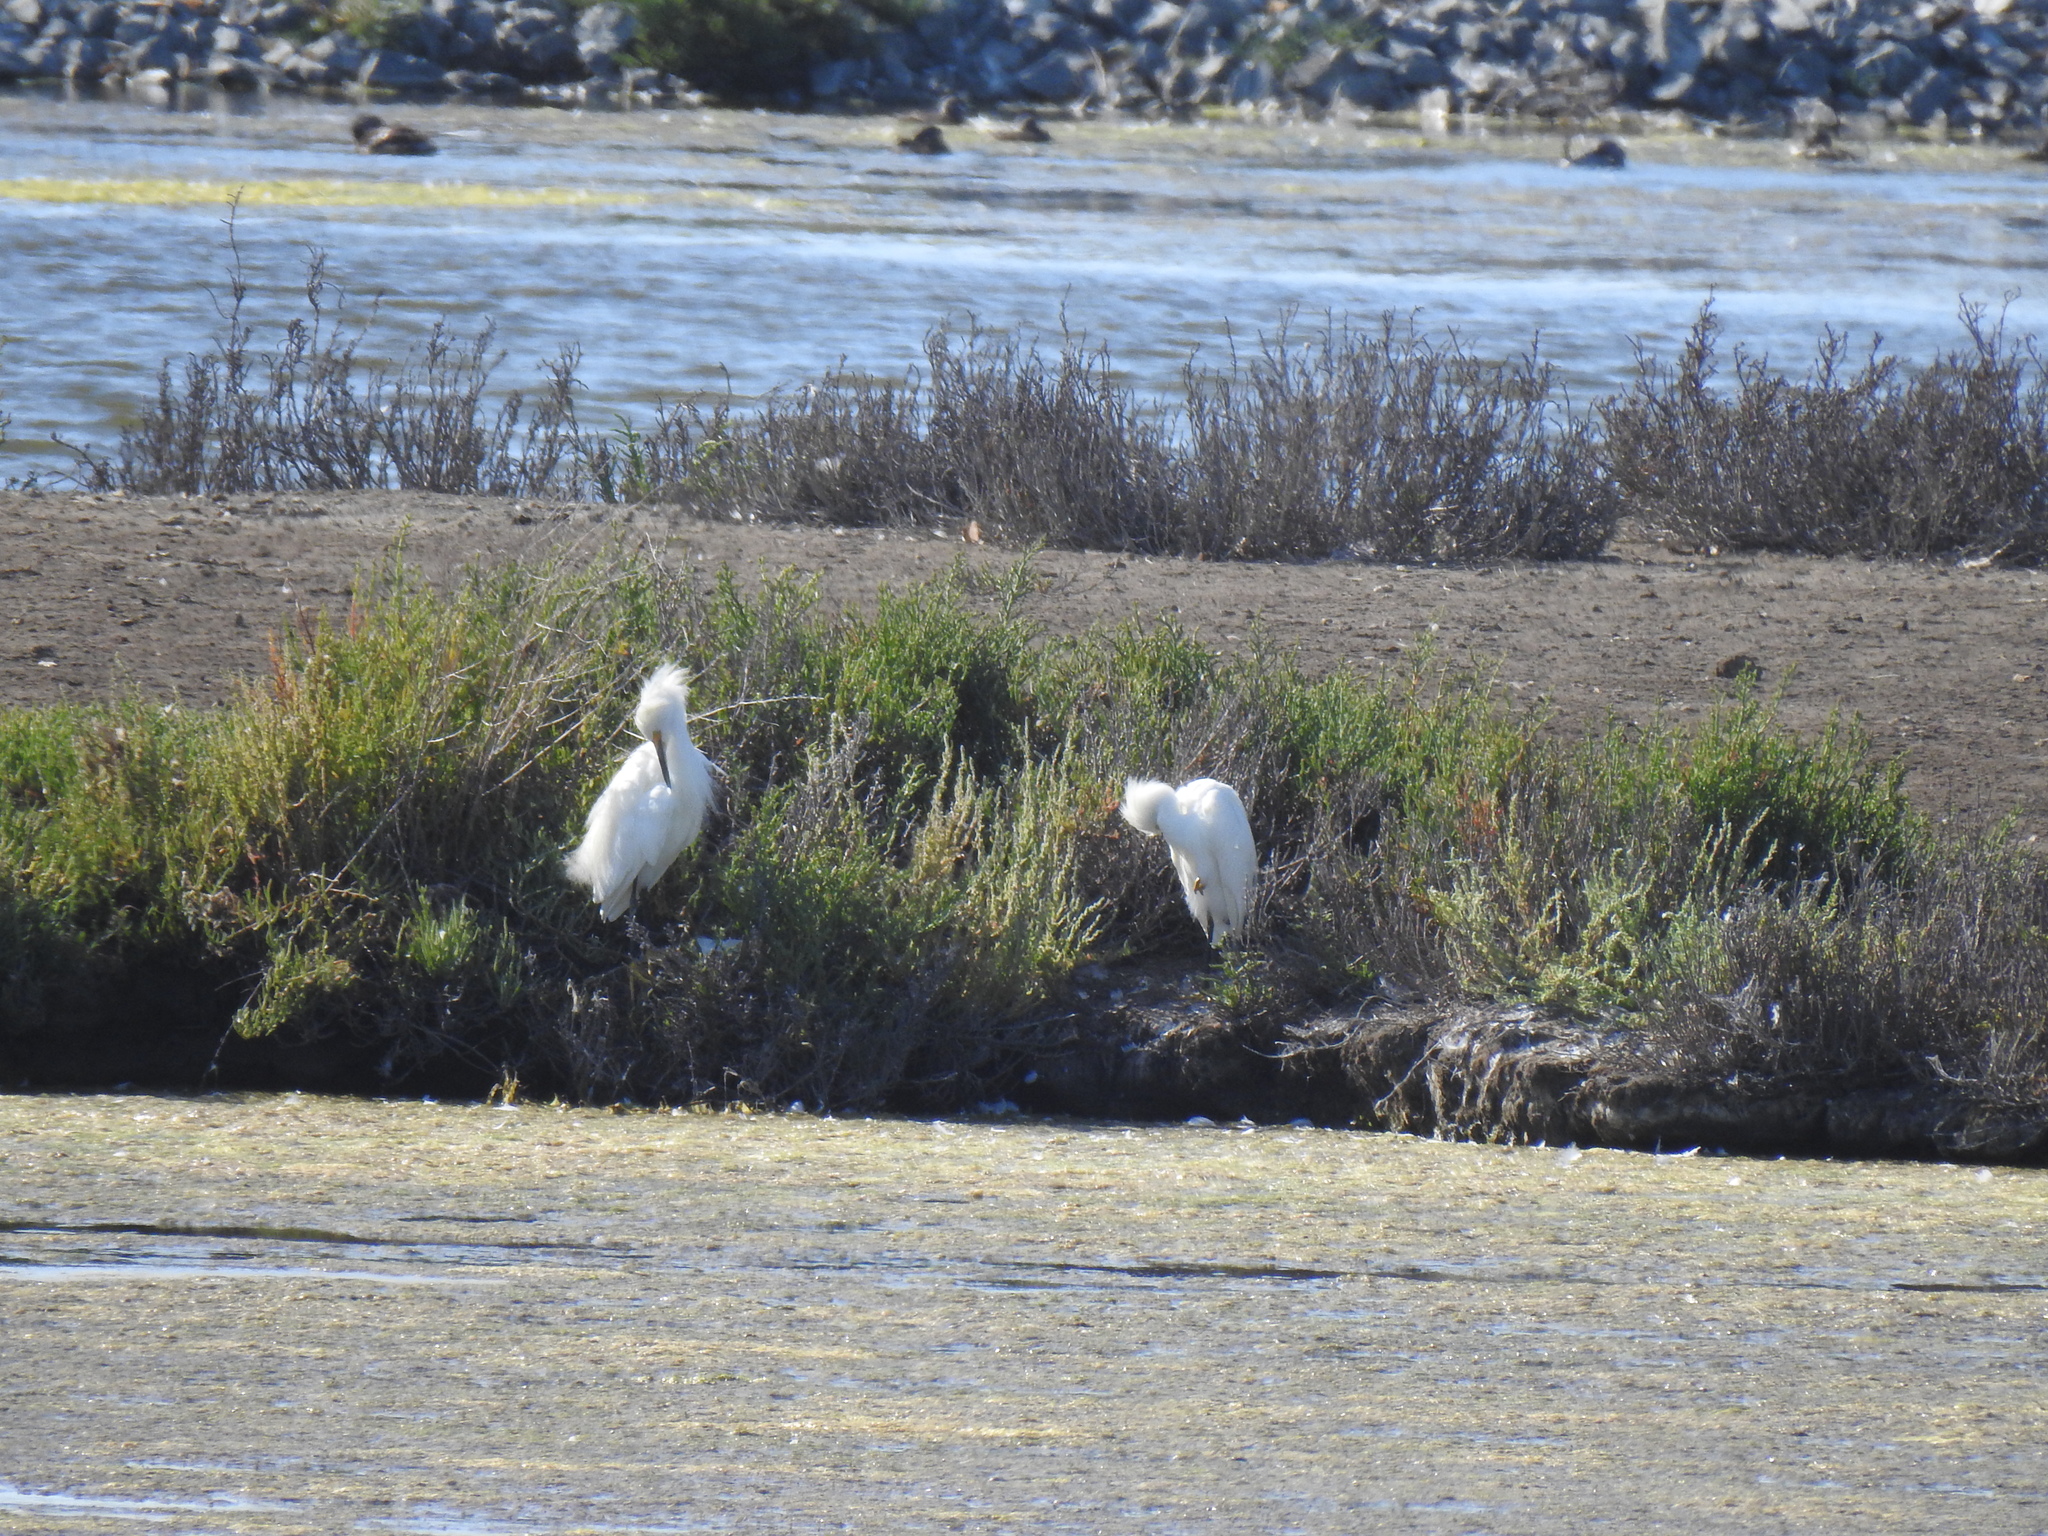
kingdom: Animalia
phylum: Chordata
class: Aves
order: Pelecaniformes
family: Ardeidae
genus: Egretta
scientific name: Egretta thula
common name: Snowy egret
